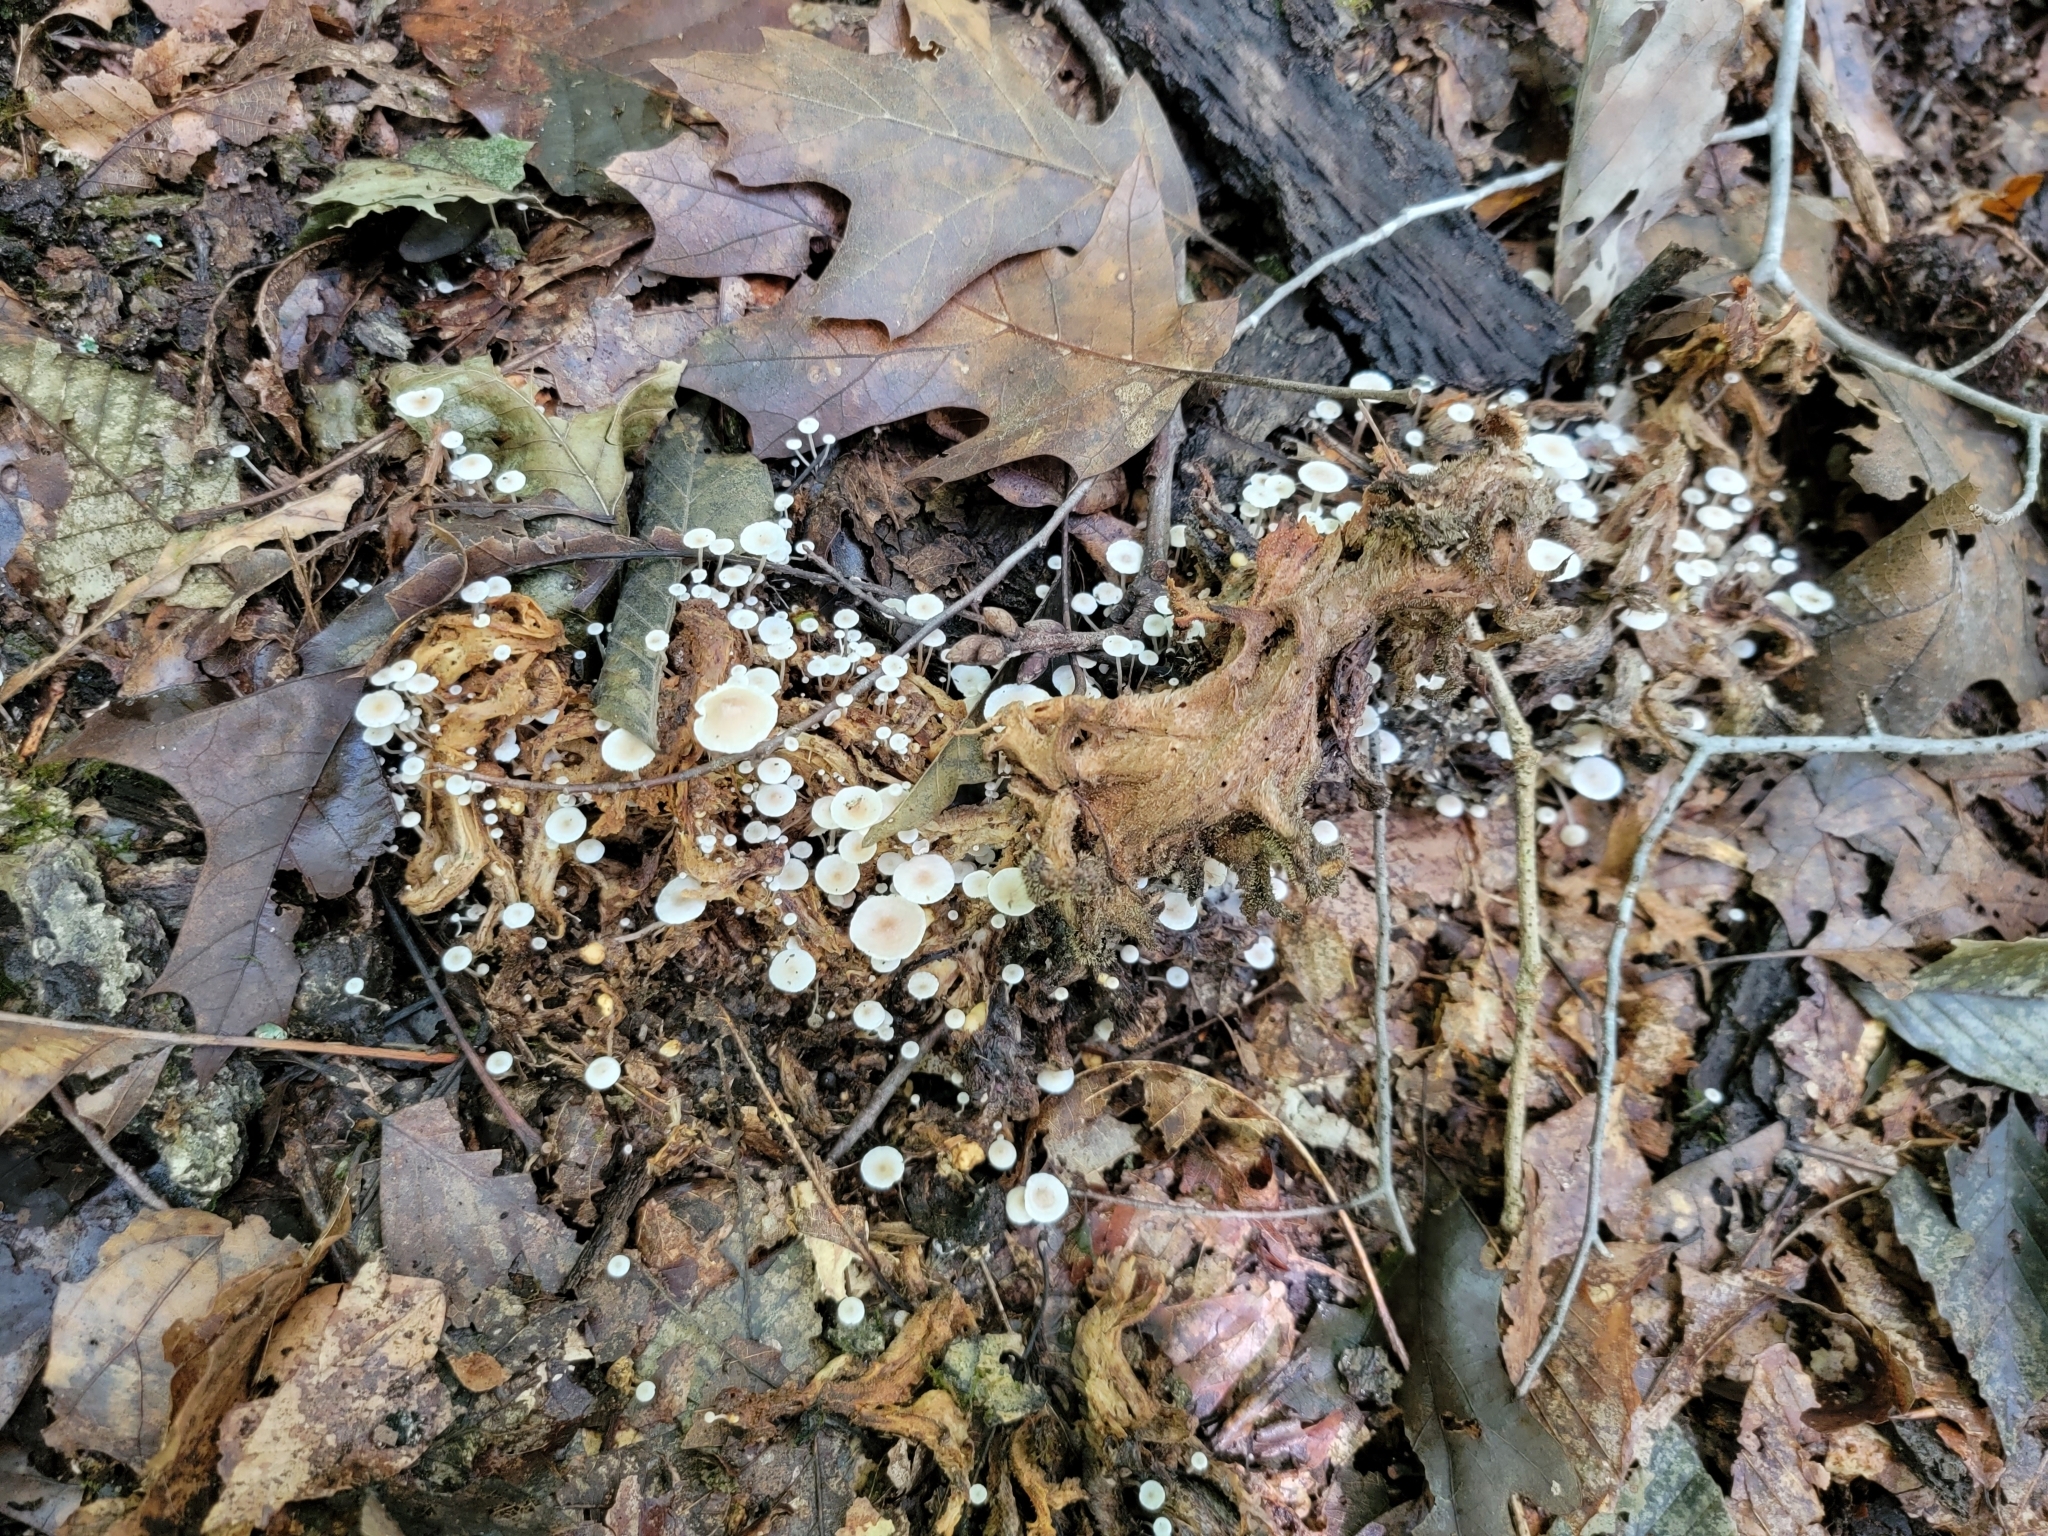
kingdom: Fungi
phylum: Basidiomycota
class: Agaricomycetes
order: Agaricales
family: Tricholomataceae
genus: Collybia
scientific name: Collybia cookei
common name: Splitpea shanklet
